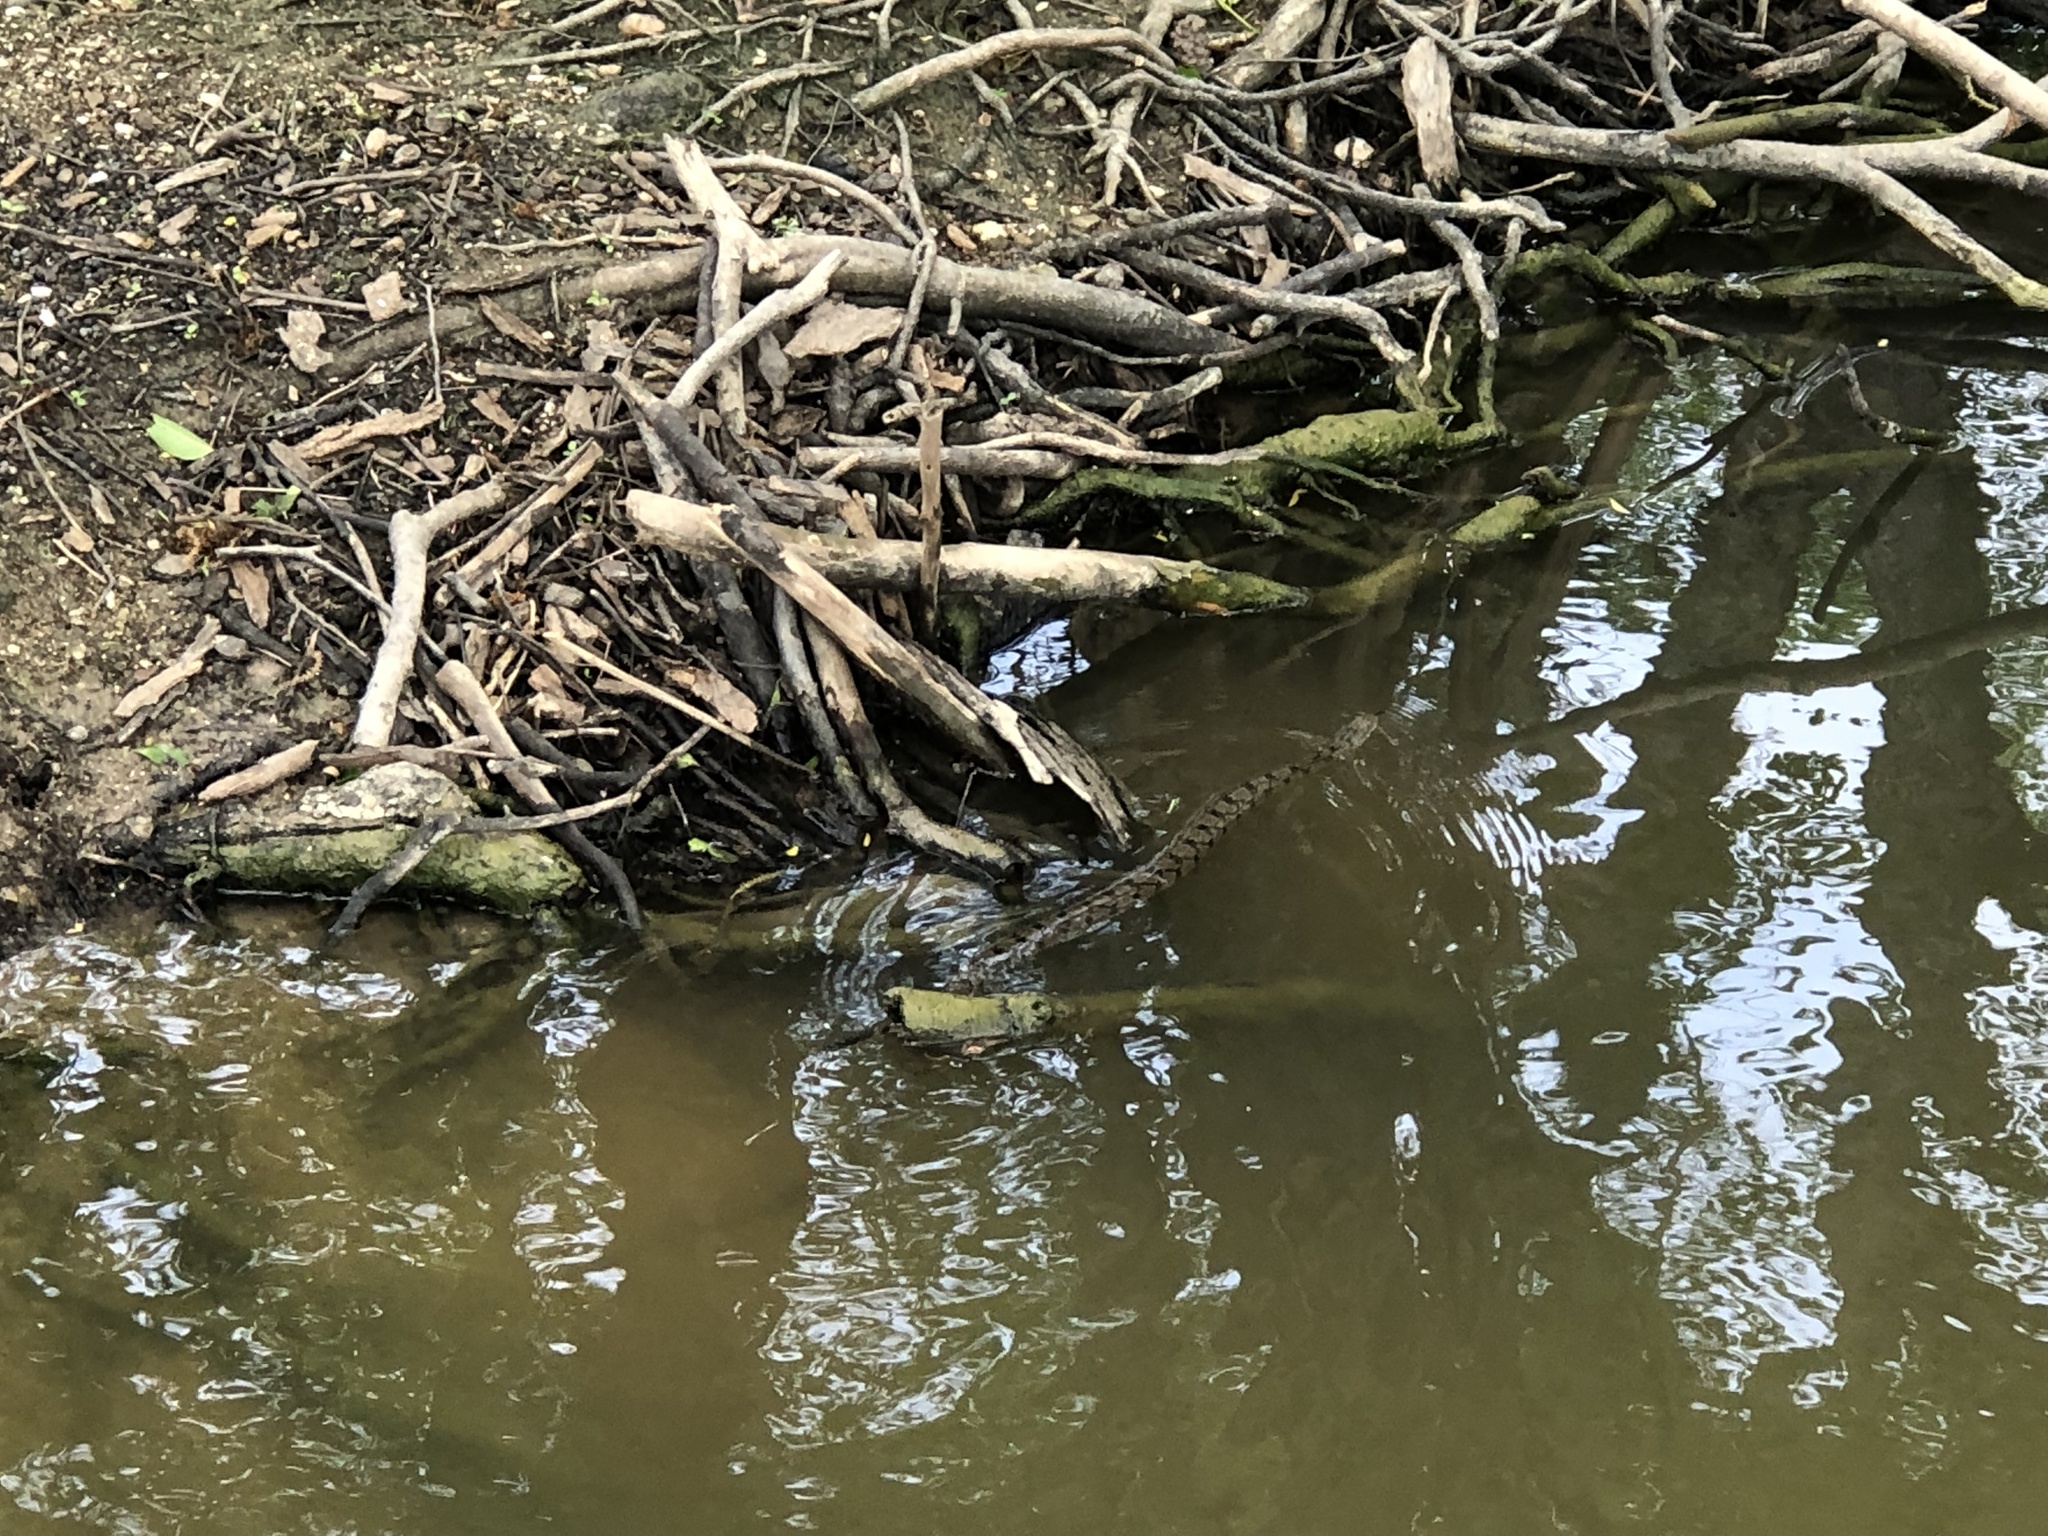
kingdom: Animalia
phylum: Chordata
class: Squamata
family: Colubridae
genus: Nerodia
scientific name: Nerodia rhombifer
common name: Diamondback water snake
